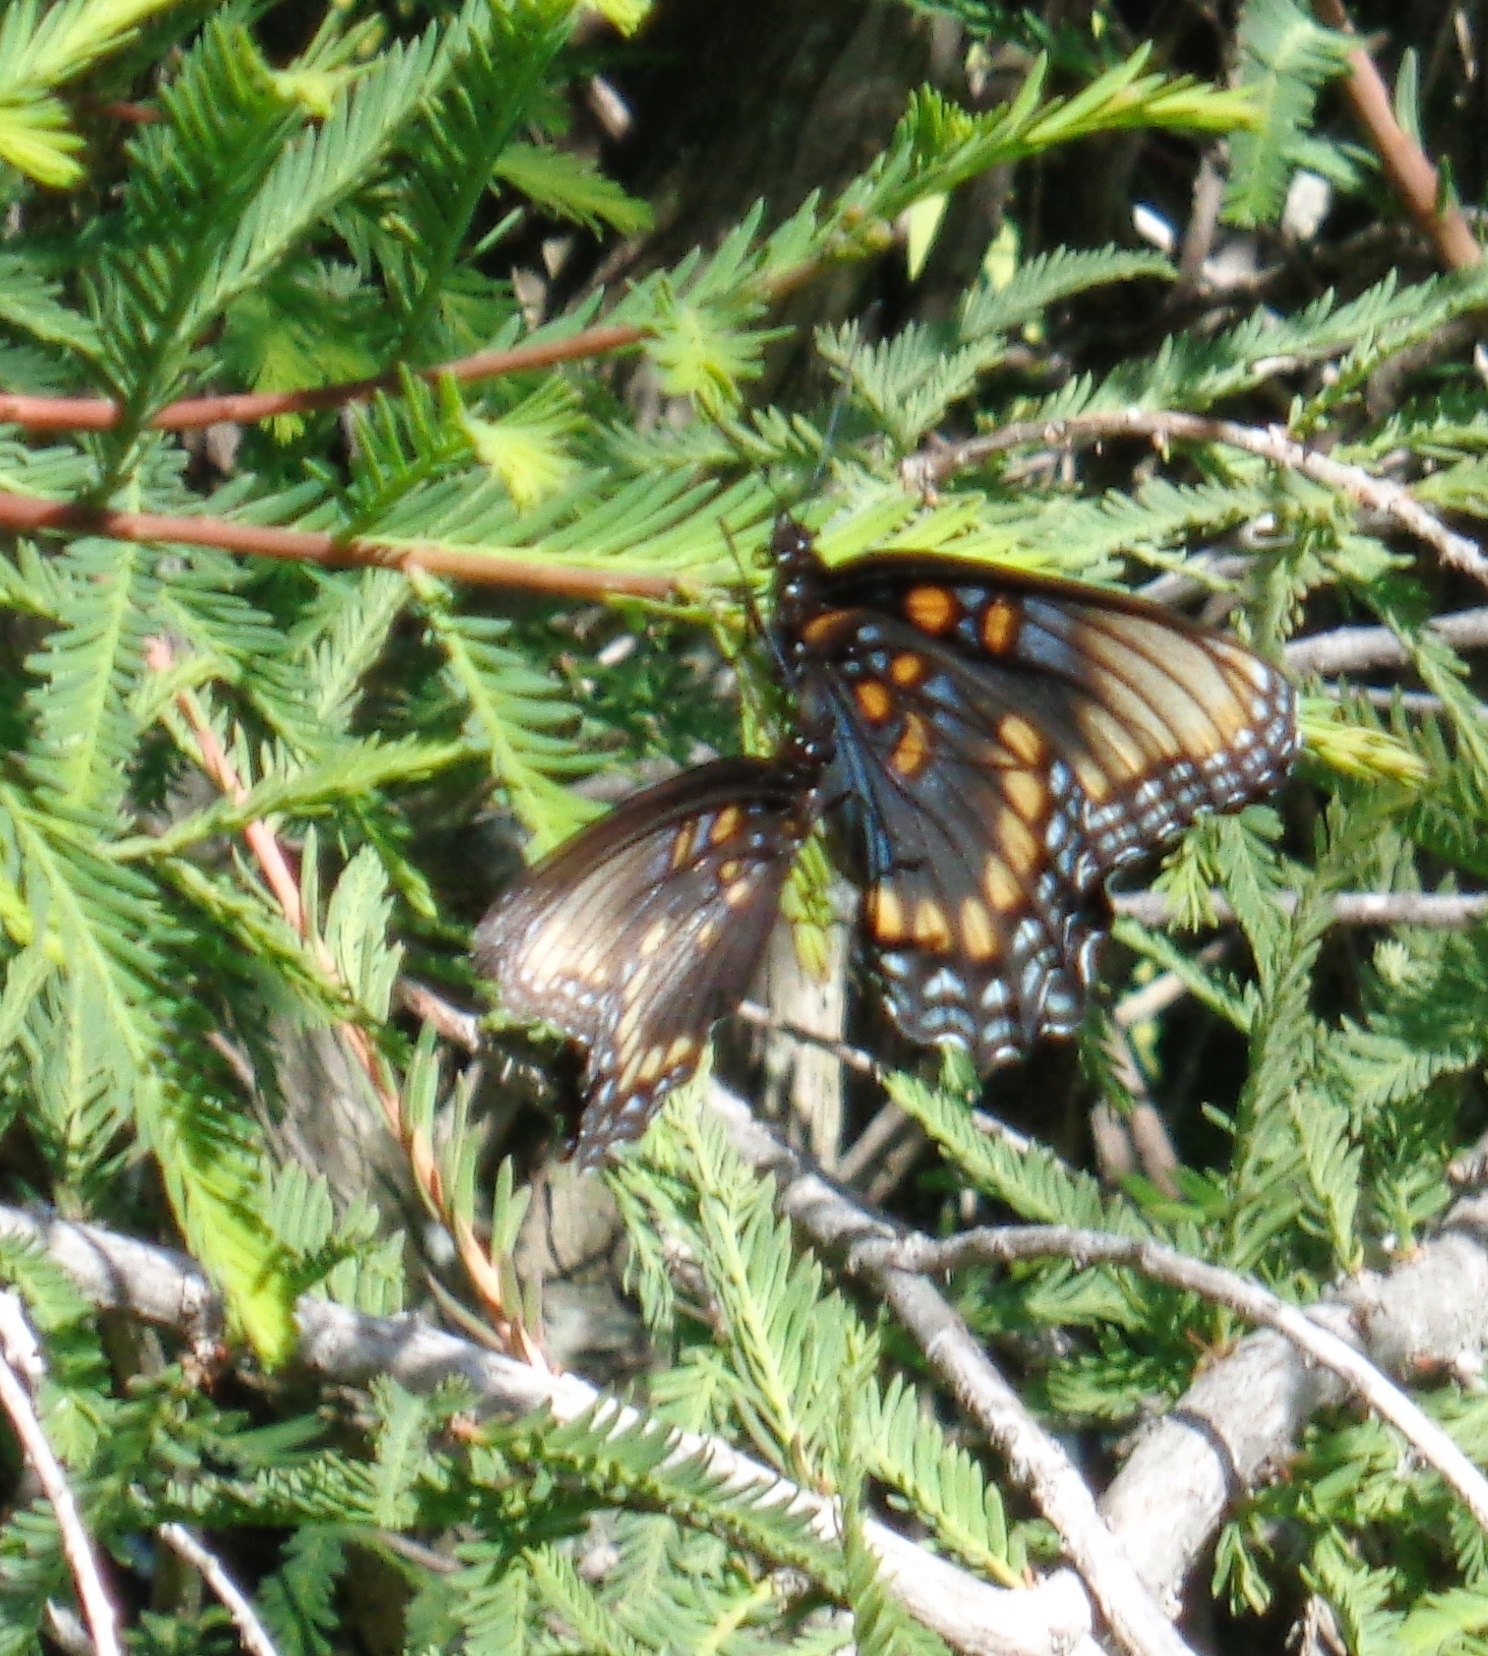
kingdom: Animalia
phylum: Arthropoda
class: Insecta
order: Lepidoptera
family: Nymphalidae
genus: Limenitis
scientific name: Limenitis arthemis
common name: Red-spotted admiral
